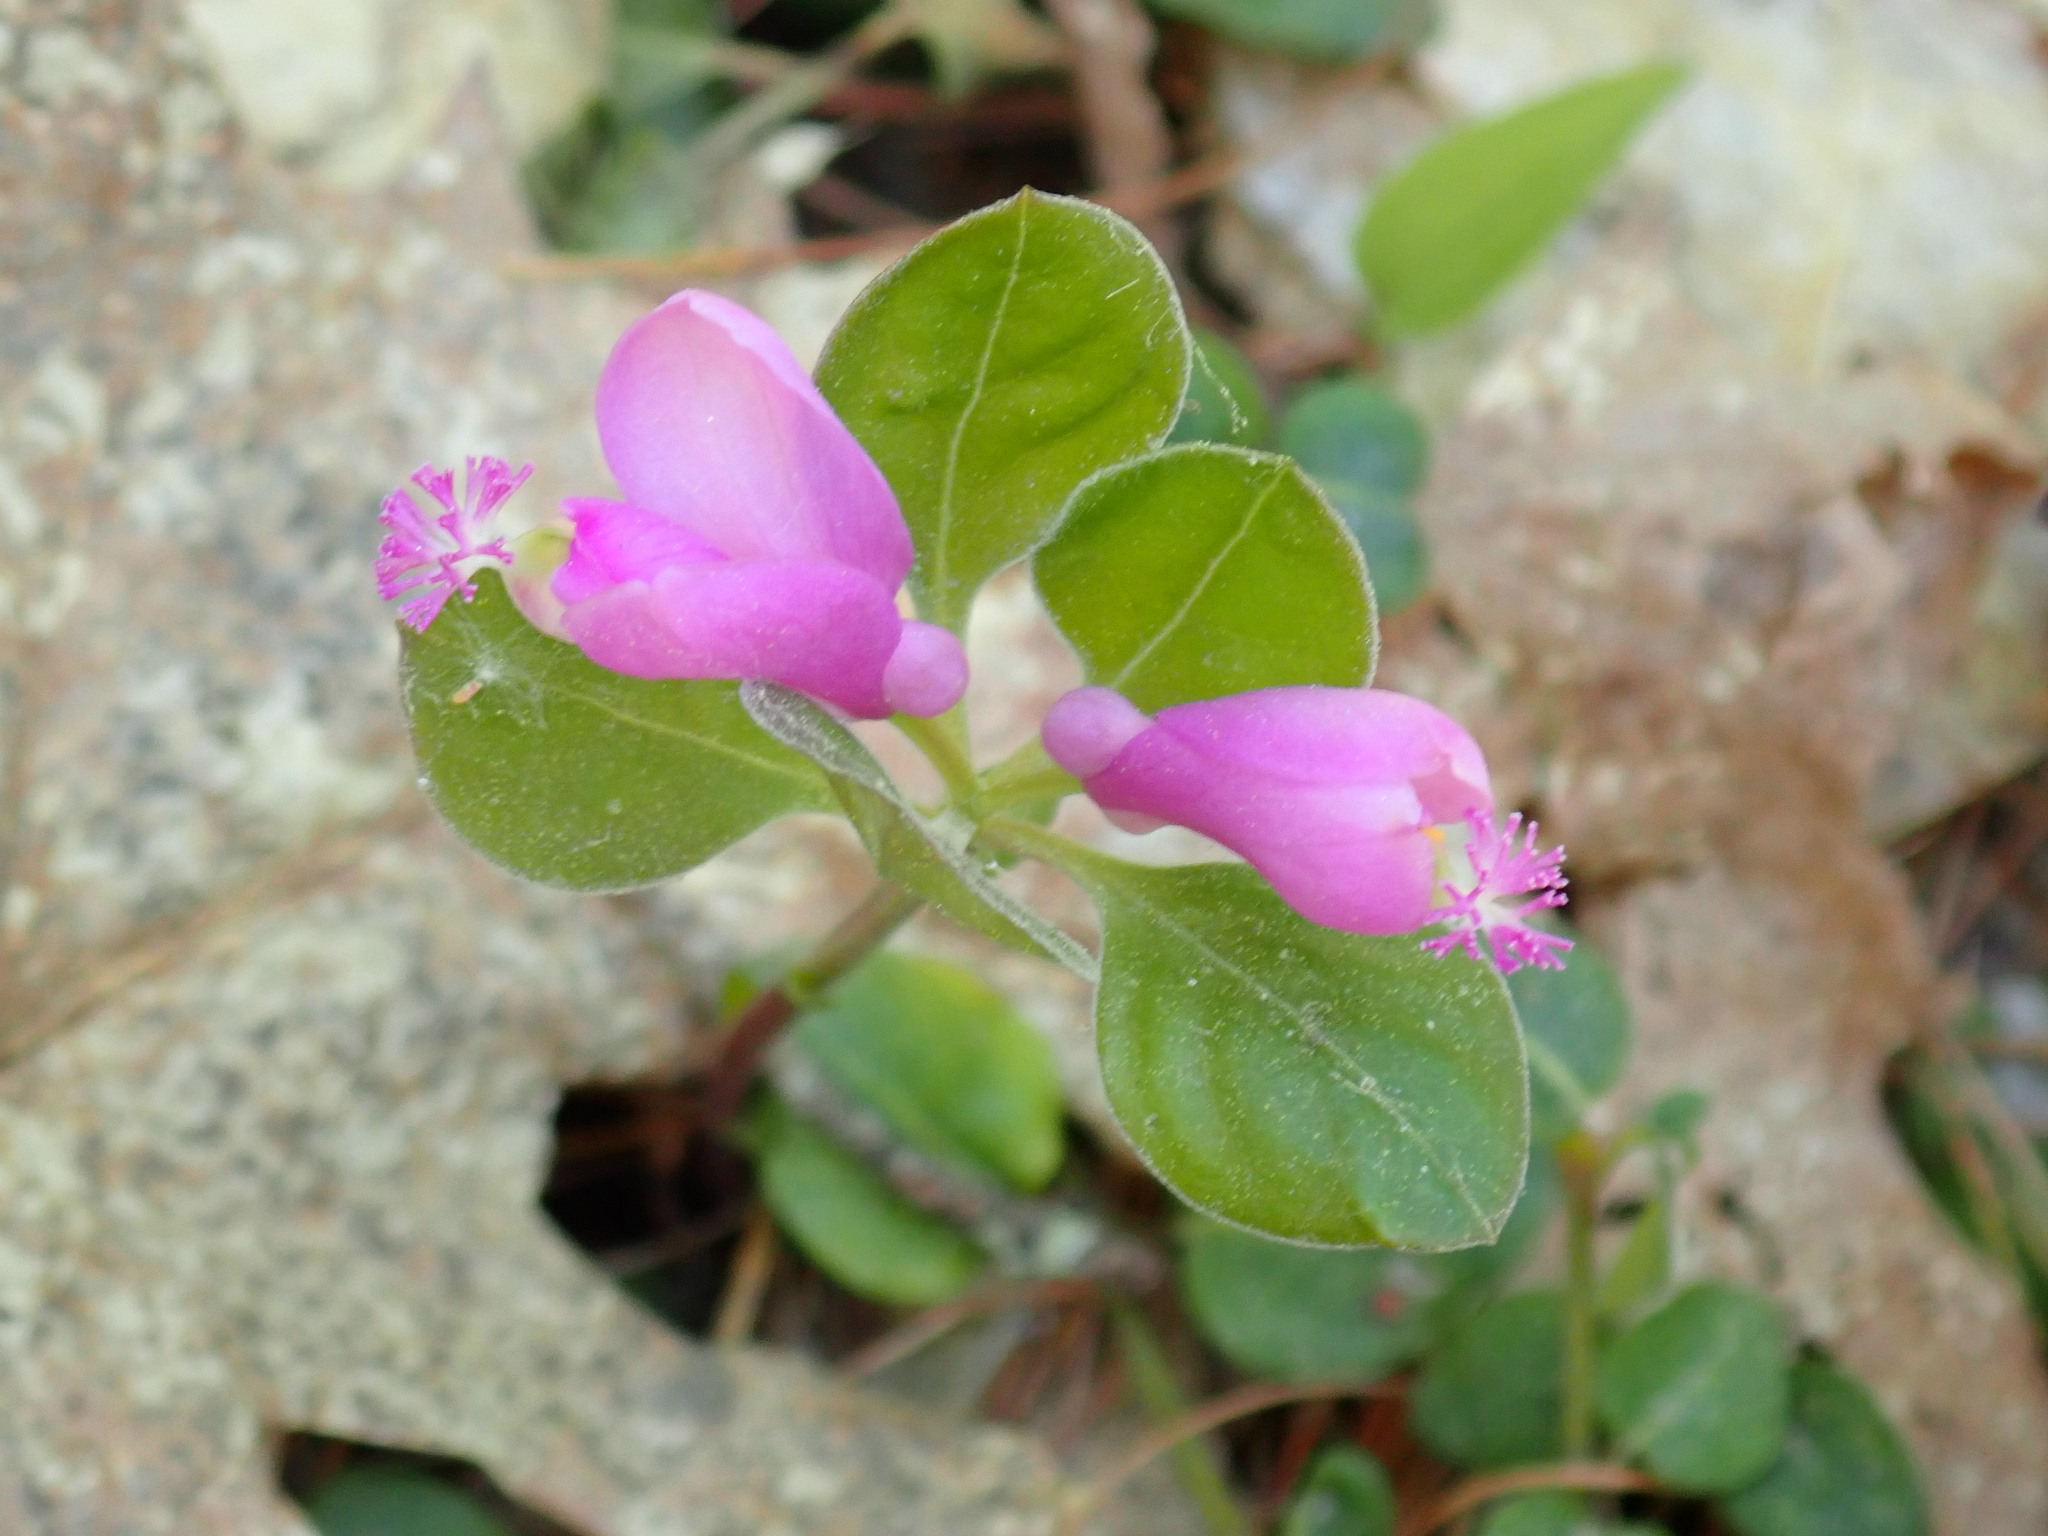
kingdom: Plantae
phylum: Tracheophyta
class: Magnoliopsida
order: Fabales
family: Polygalaceae
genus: Polygaloides
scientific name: Polygaloides paucifolia
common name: Bird-on-the-wing
